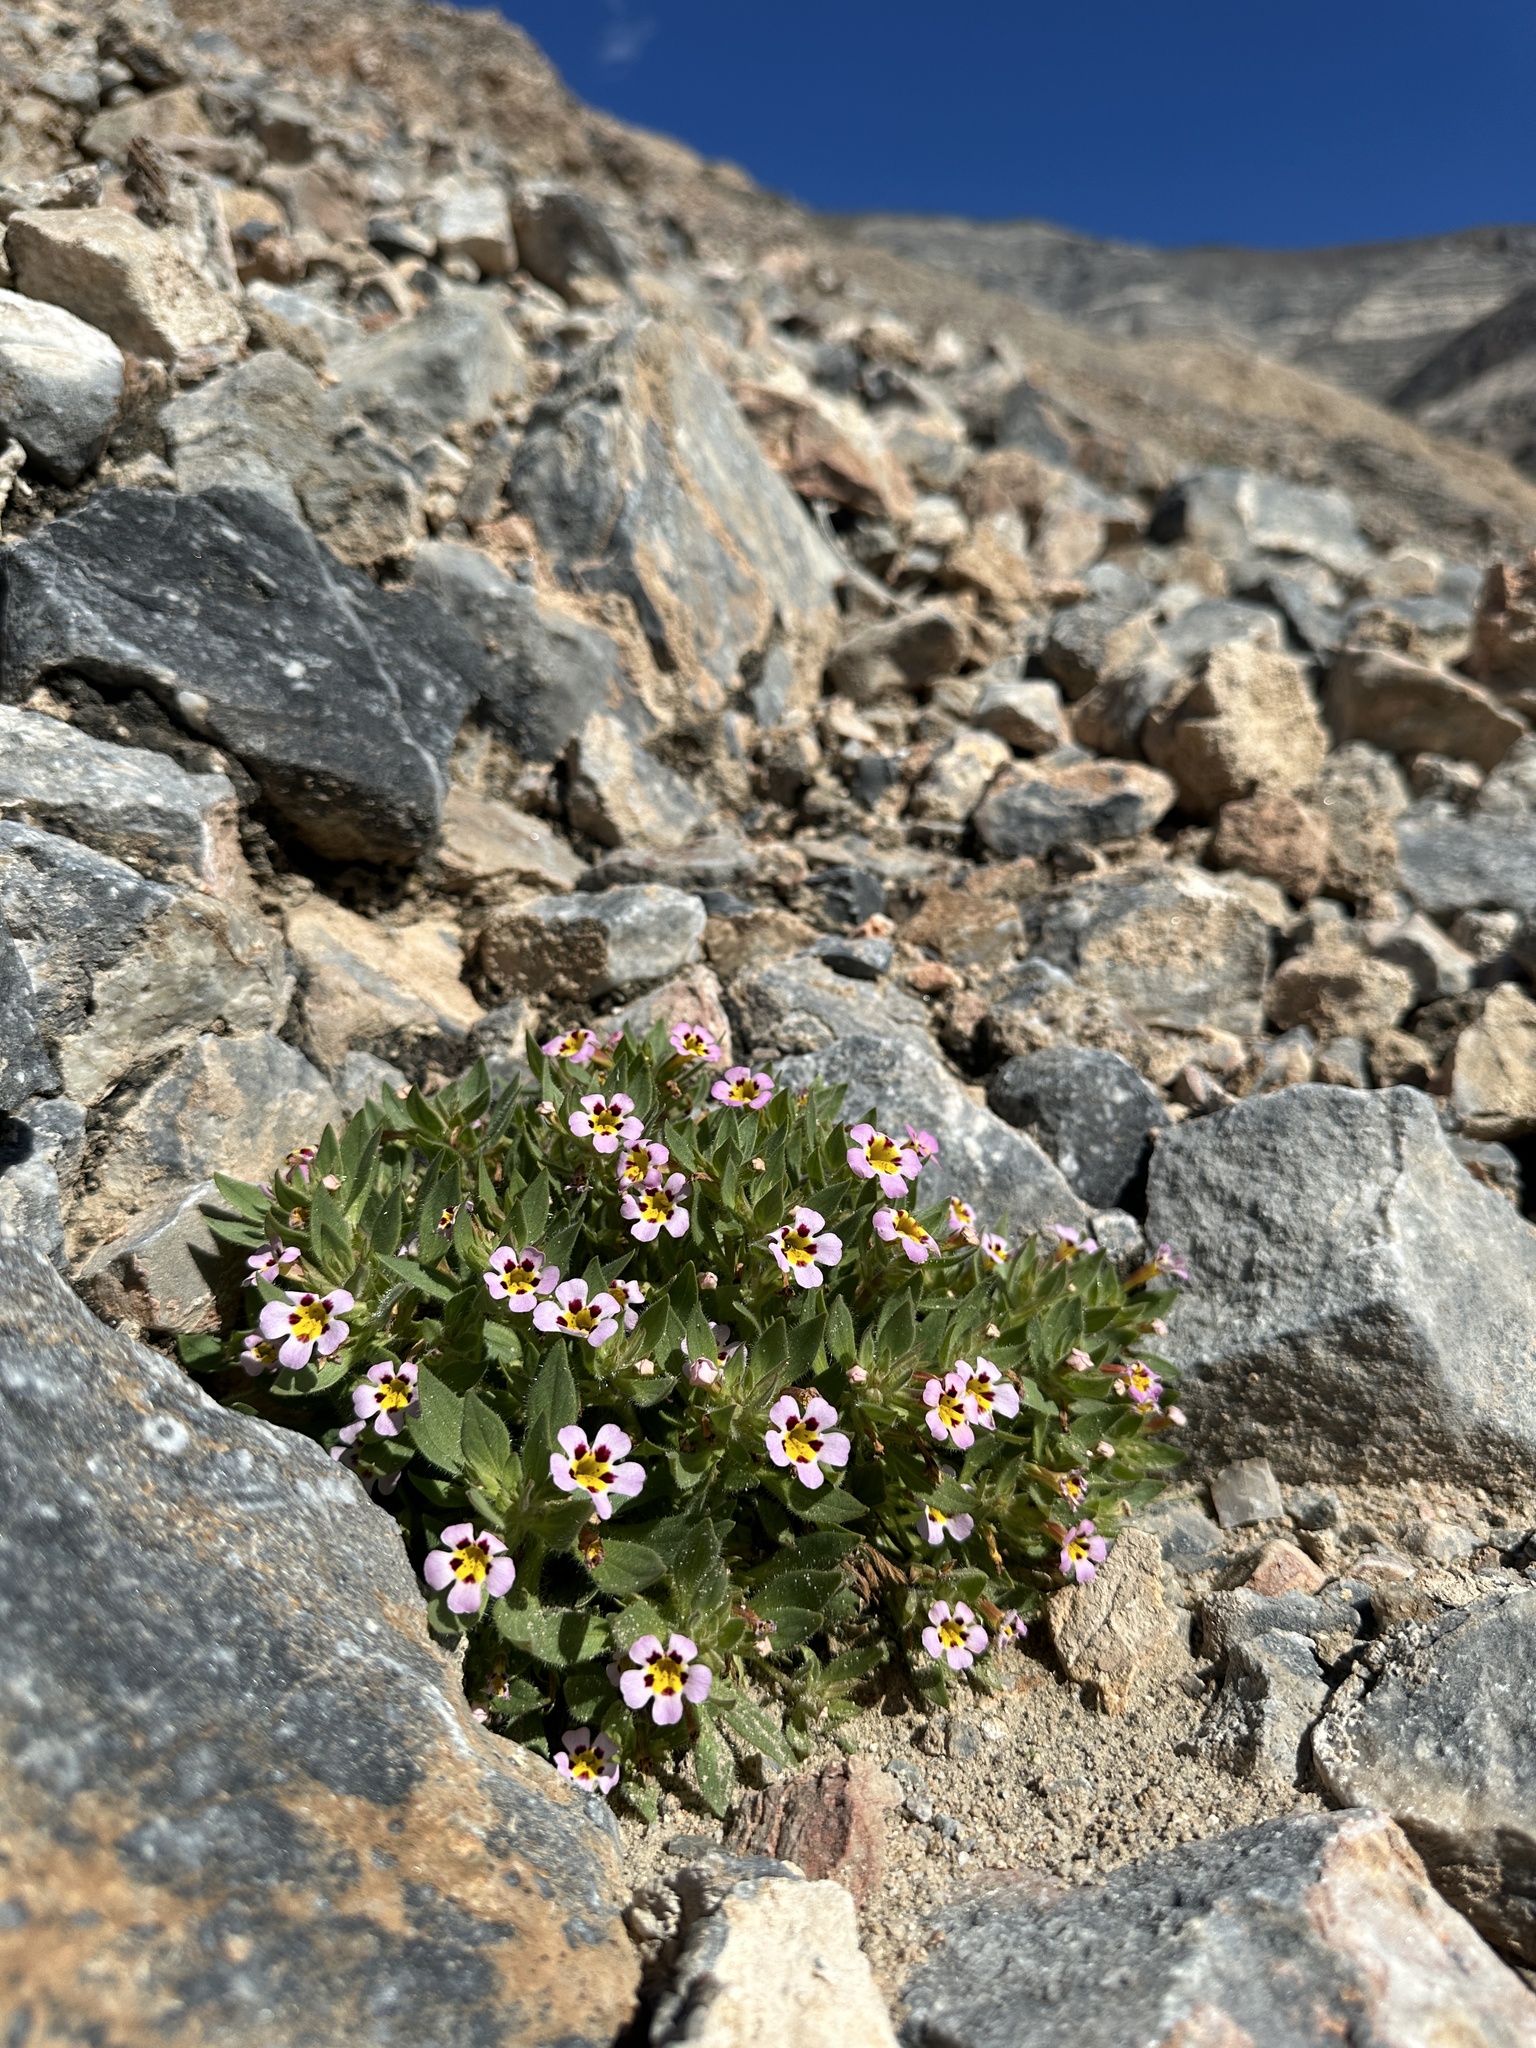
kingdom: Plantae
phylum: Tracheophyta
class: Magnoliopsida
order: Lamiales
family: Phrymaceae
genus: Diplacus
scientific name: Diplacus rupicola
